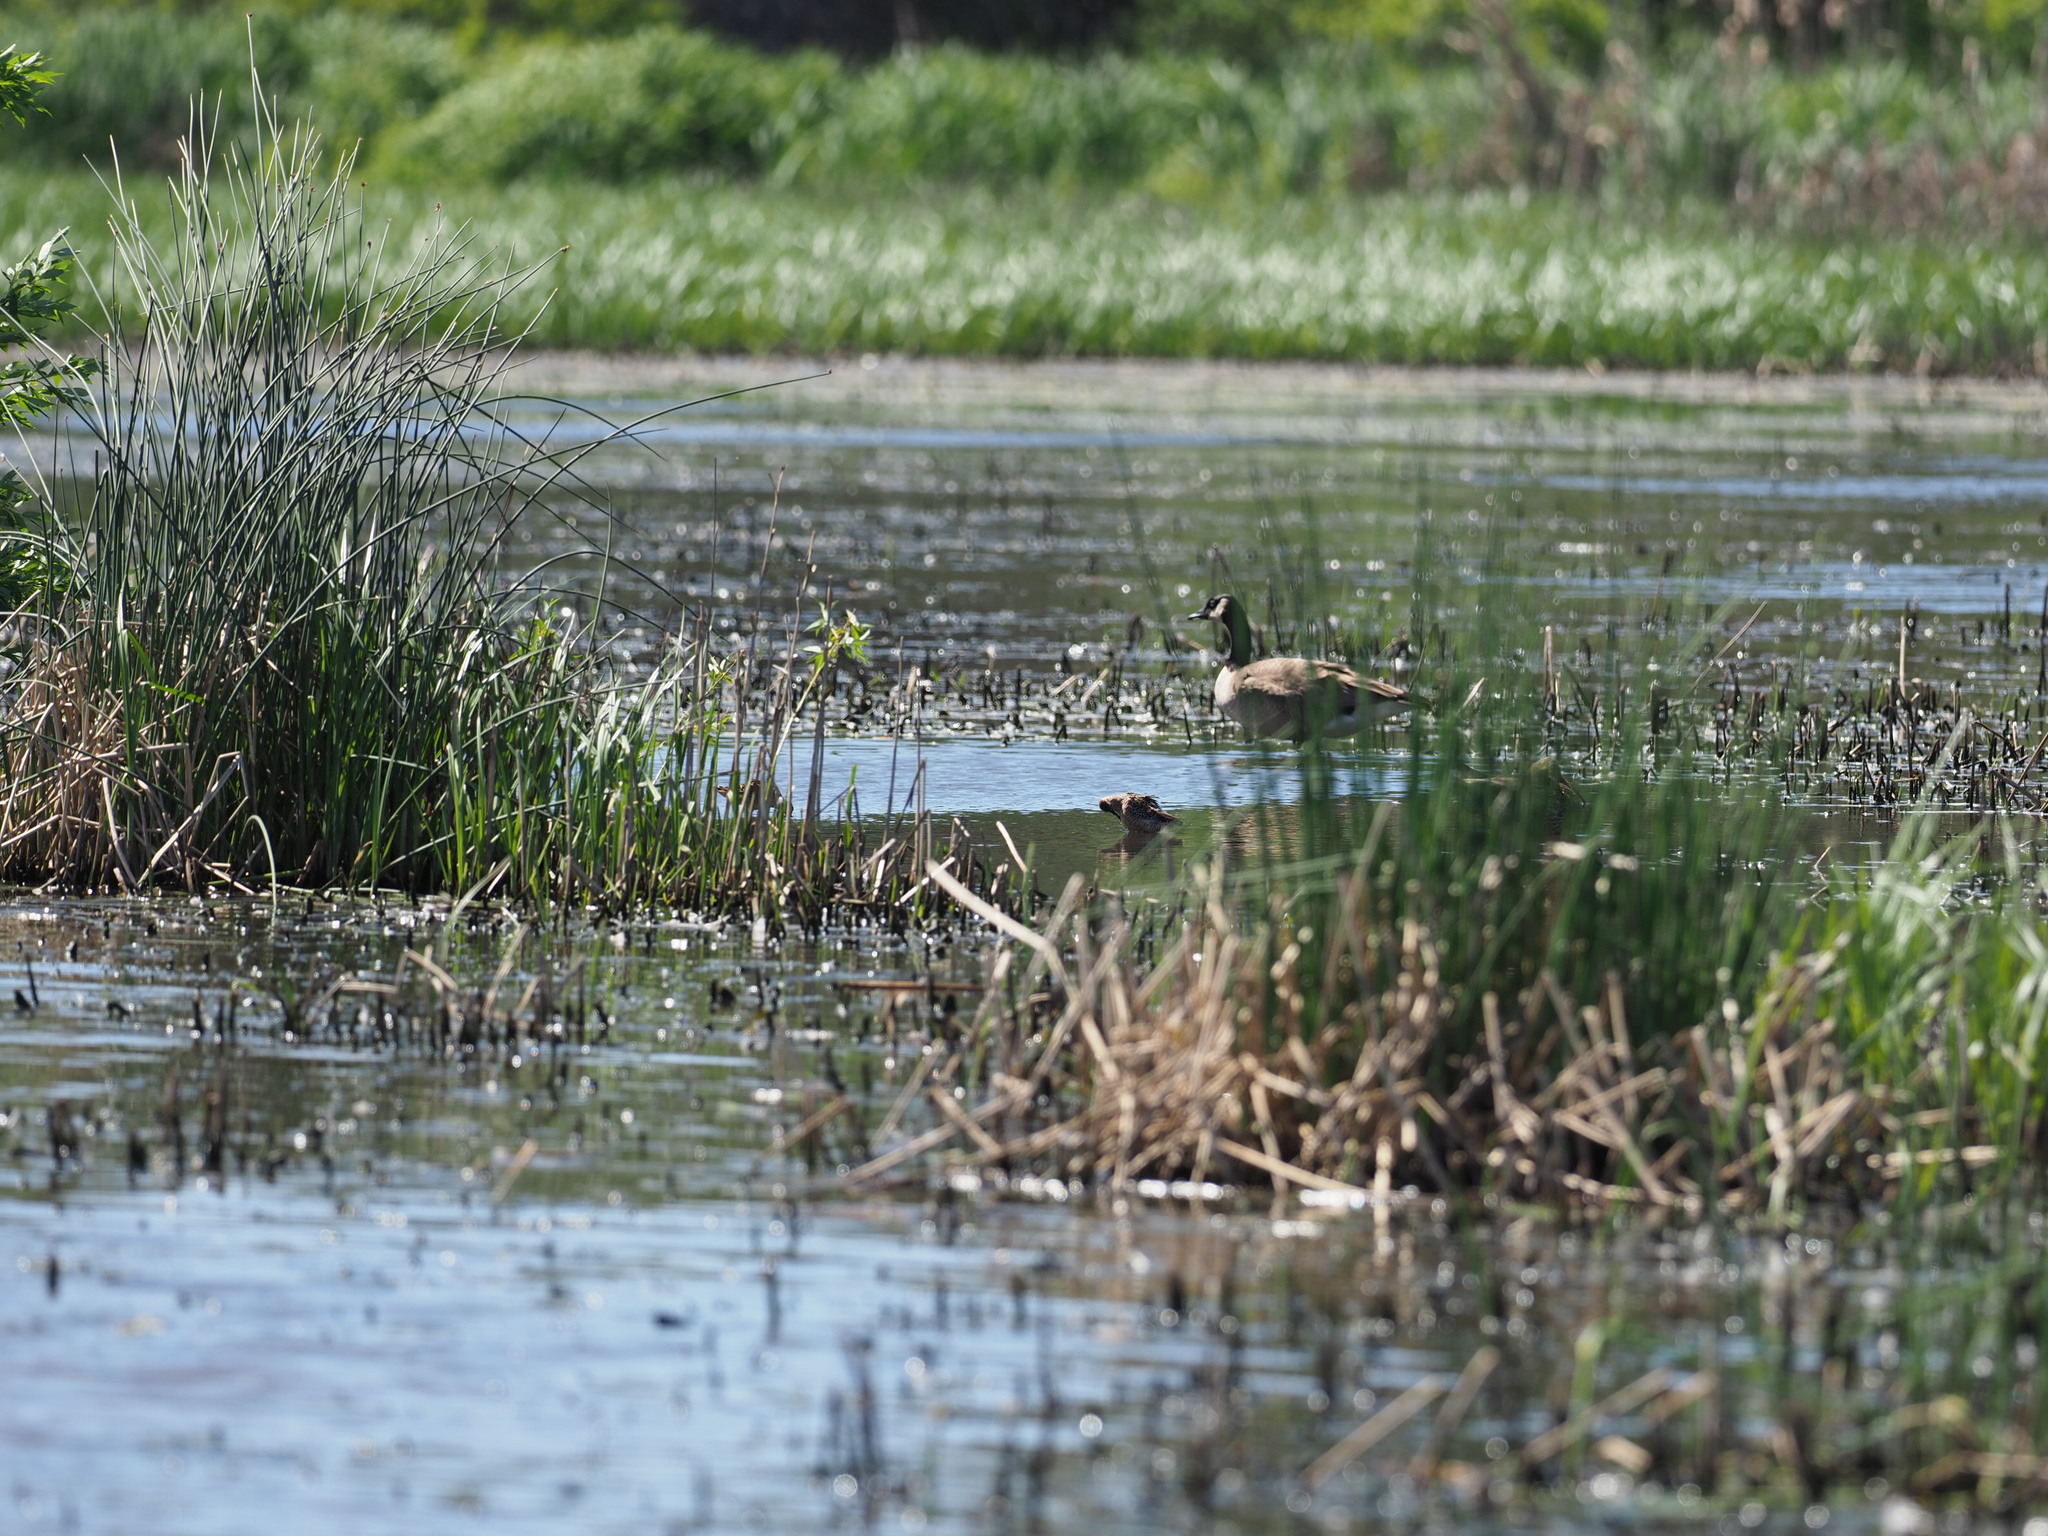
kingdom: Animalia
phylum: Chordata
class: Aves
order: Charadriiformes
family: Scolopacidae
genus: Limnodromus
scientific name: Limnodromus scolopaceus
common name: Long-billed dowitcher
